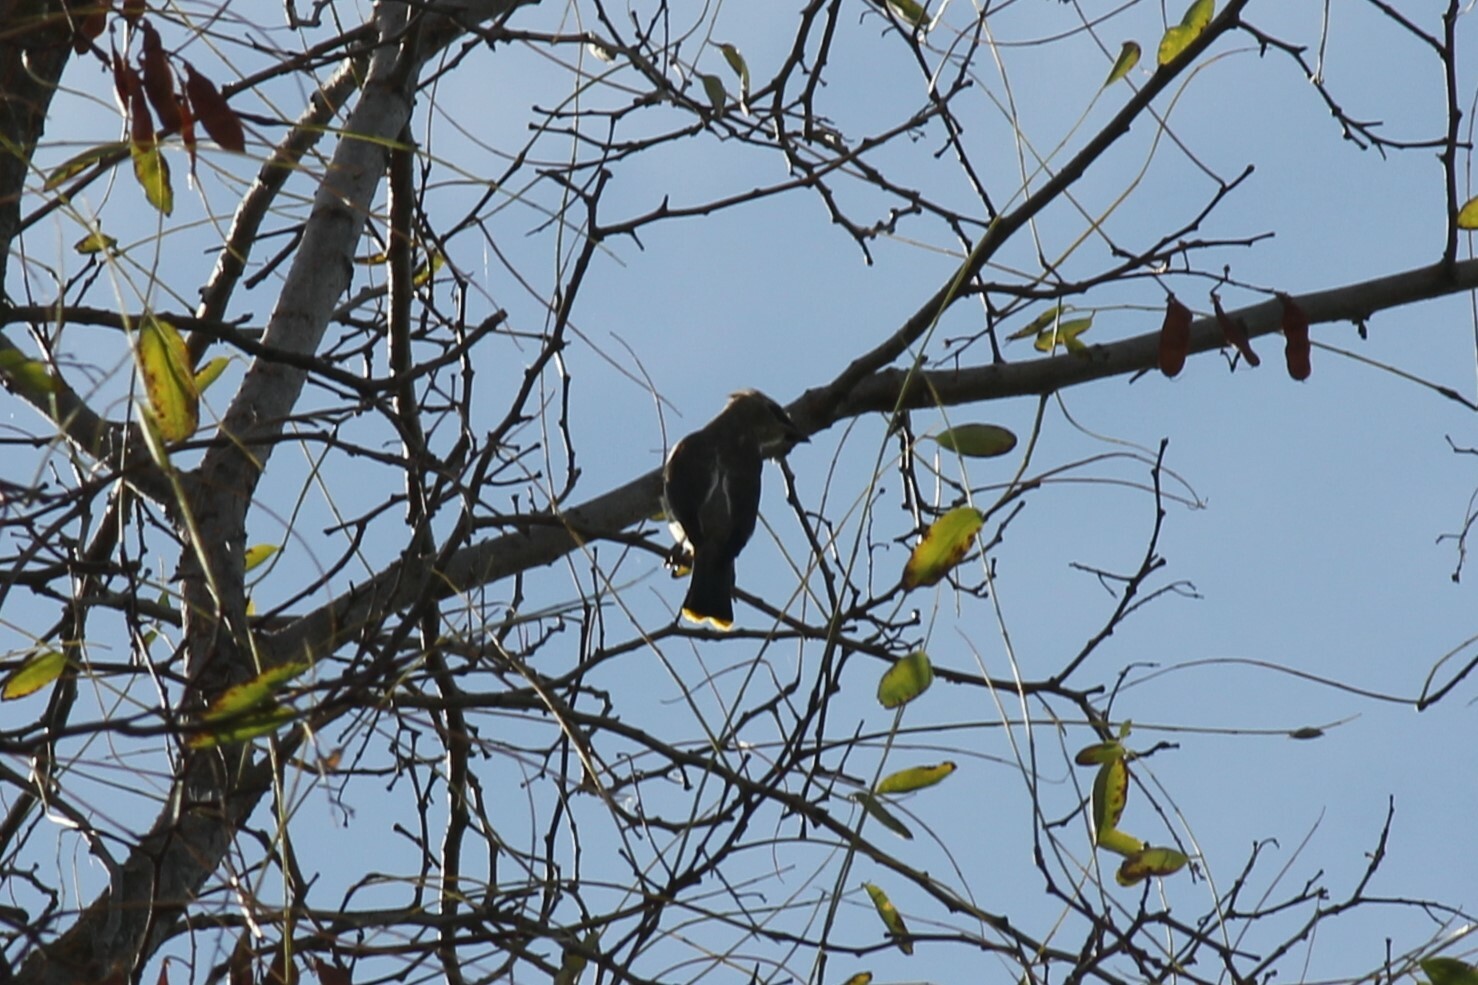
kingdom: Animalia
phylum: Chordata
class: Aves
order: Passeriformes
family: Bombycillidae
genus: Bombycilla
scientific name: Bombycilla cedrorum
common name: Cedar waxwing
